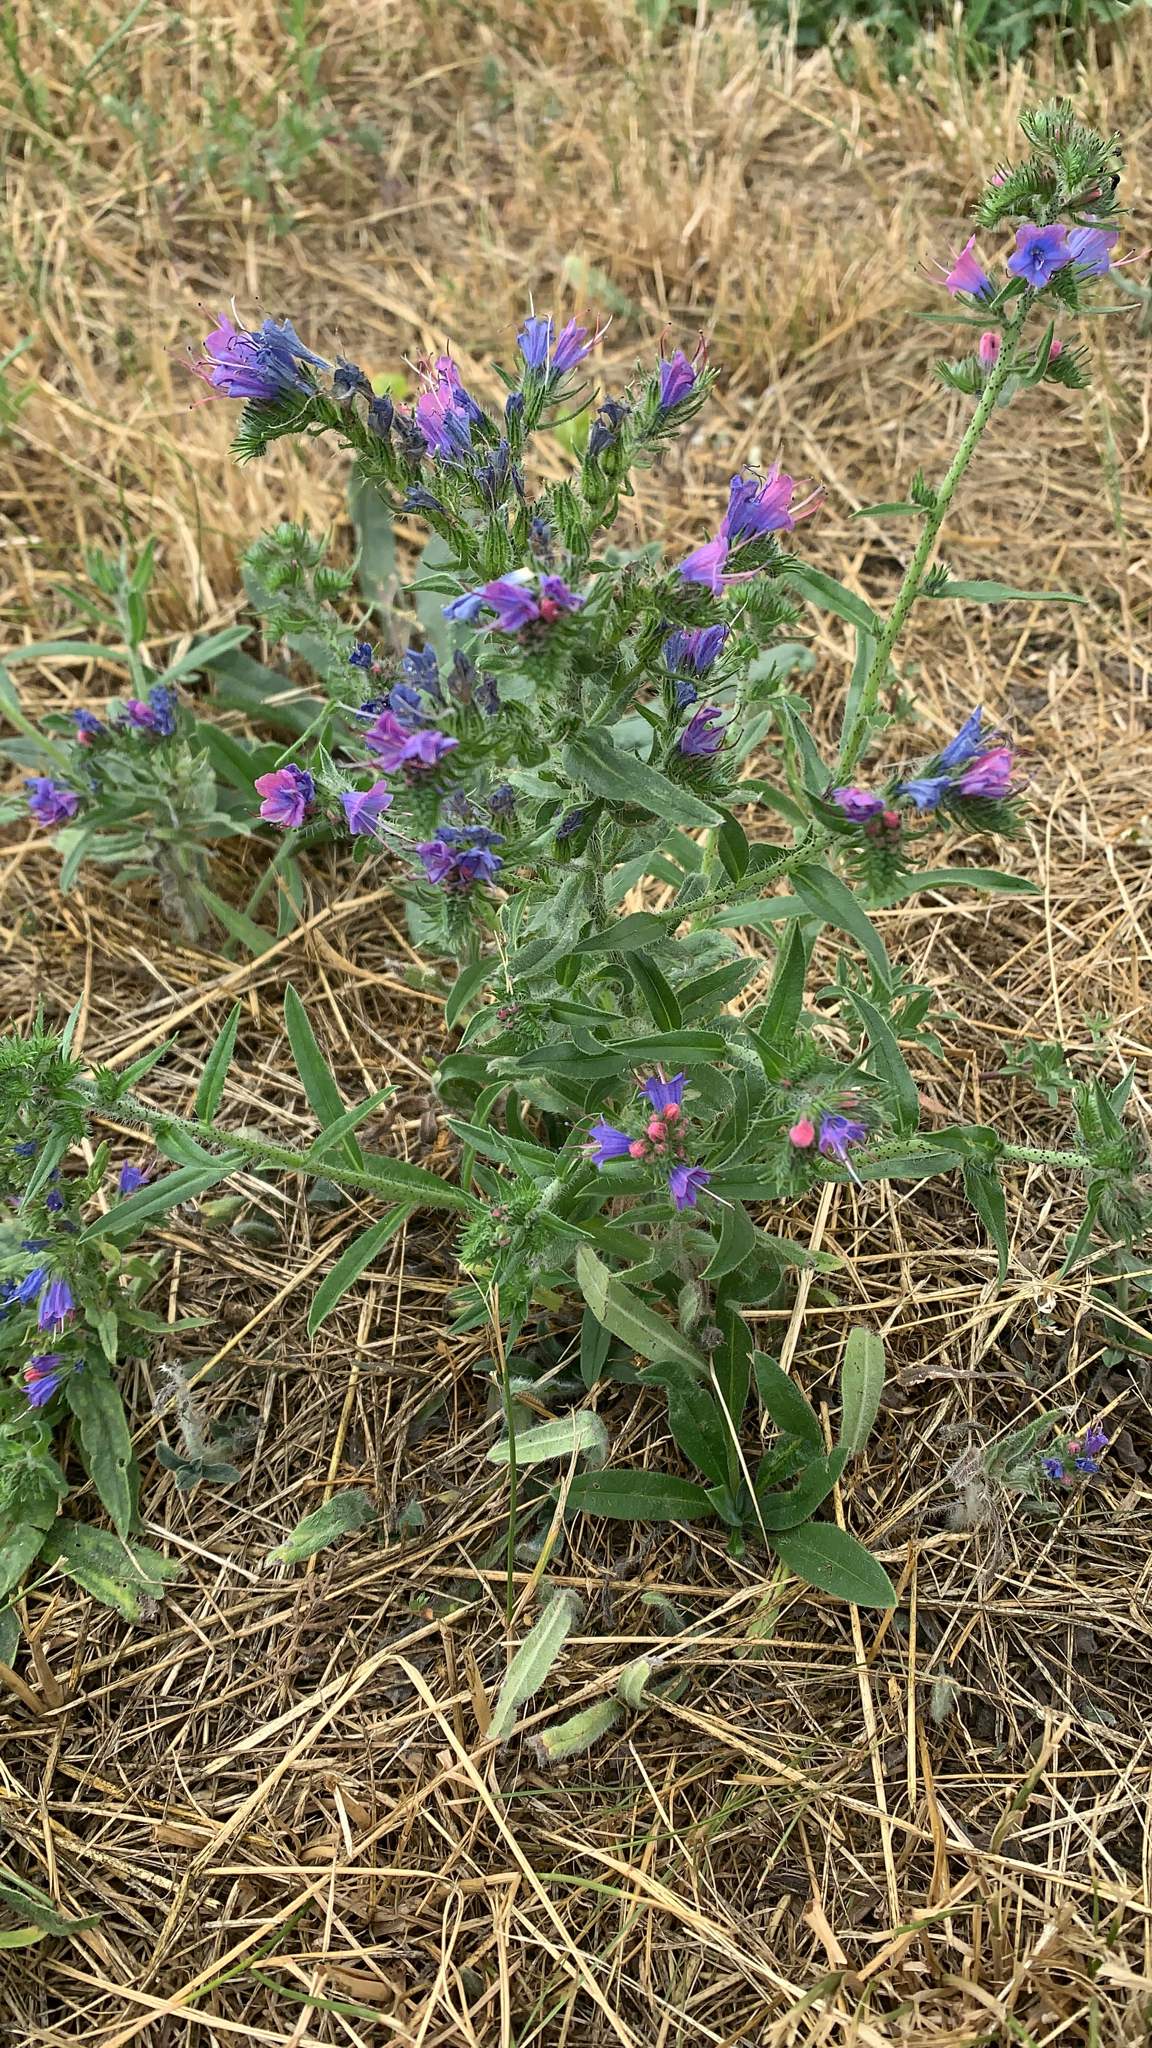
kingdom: Plantae
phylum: Tracheophyta
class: Magnoliopsida
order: Boraginales
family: Boraginaceae
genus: Echium
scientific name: Echium vulgare
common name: Common viper's bugloss
